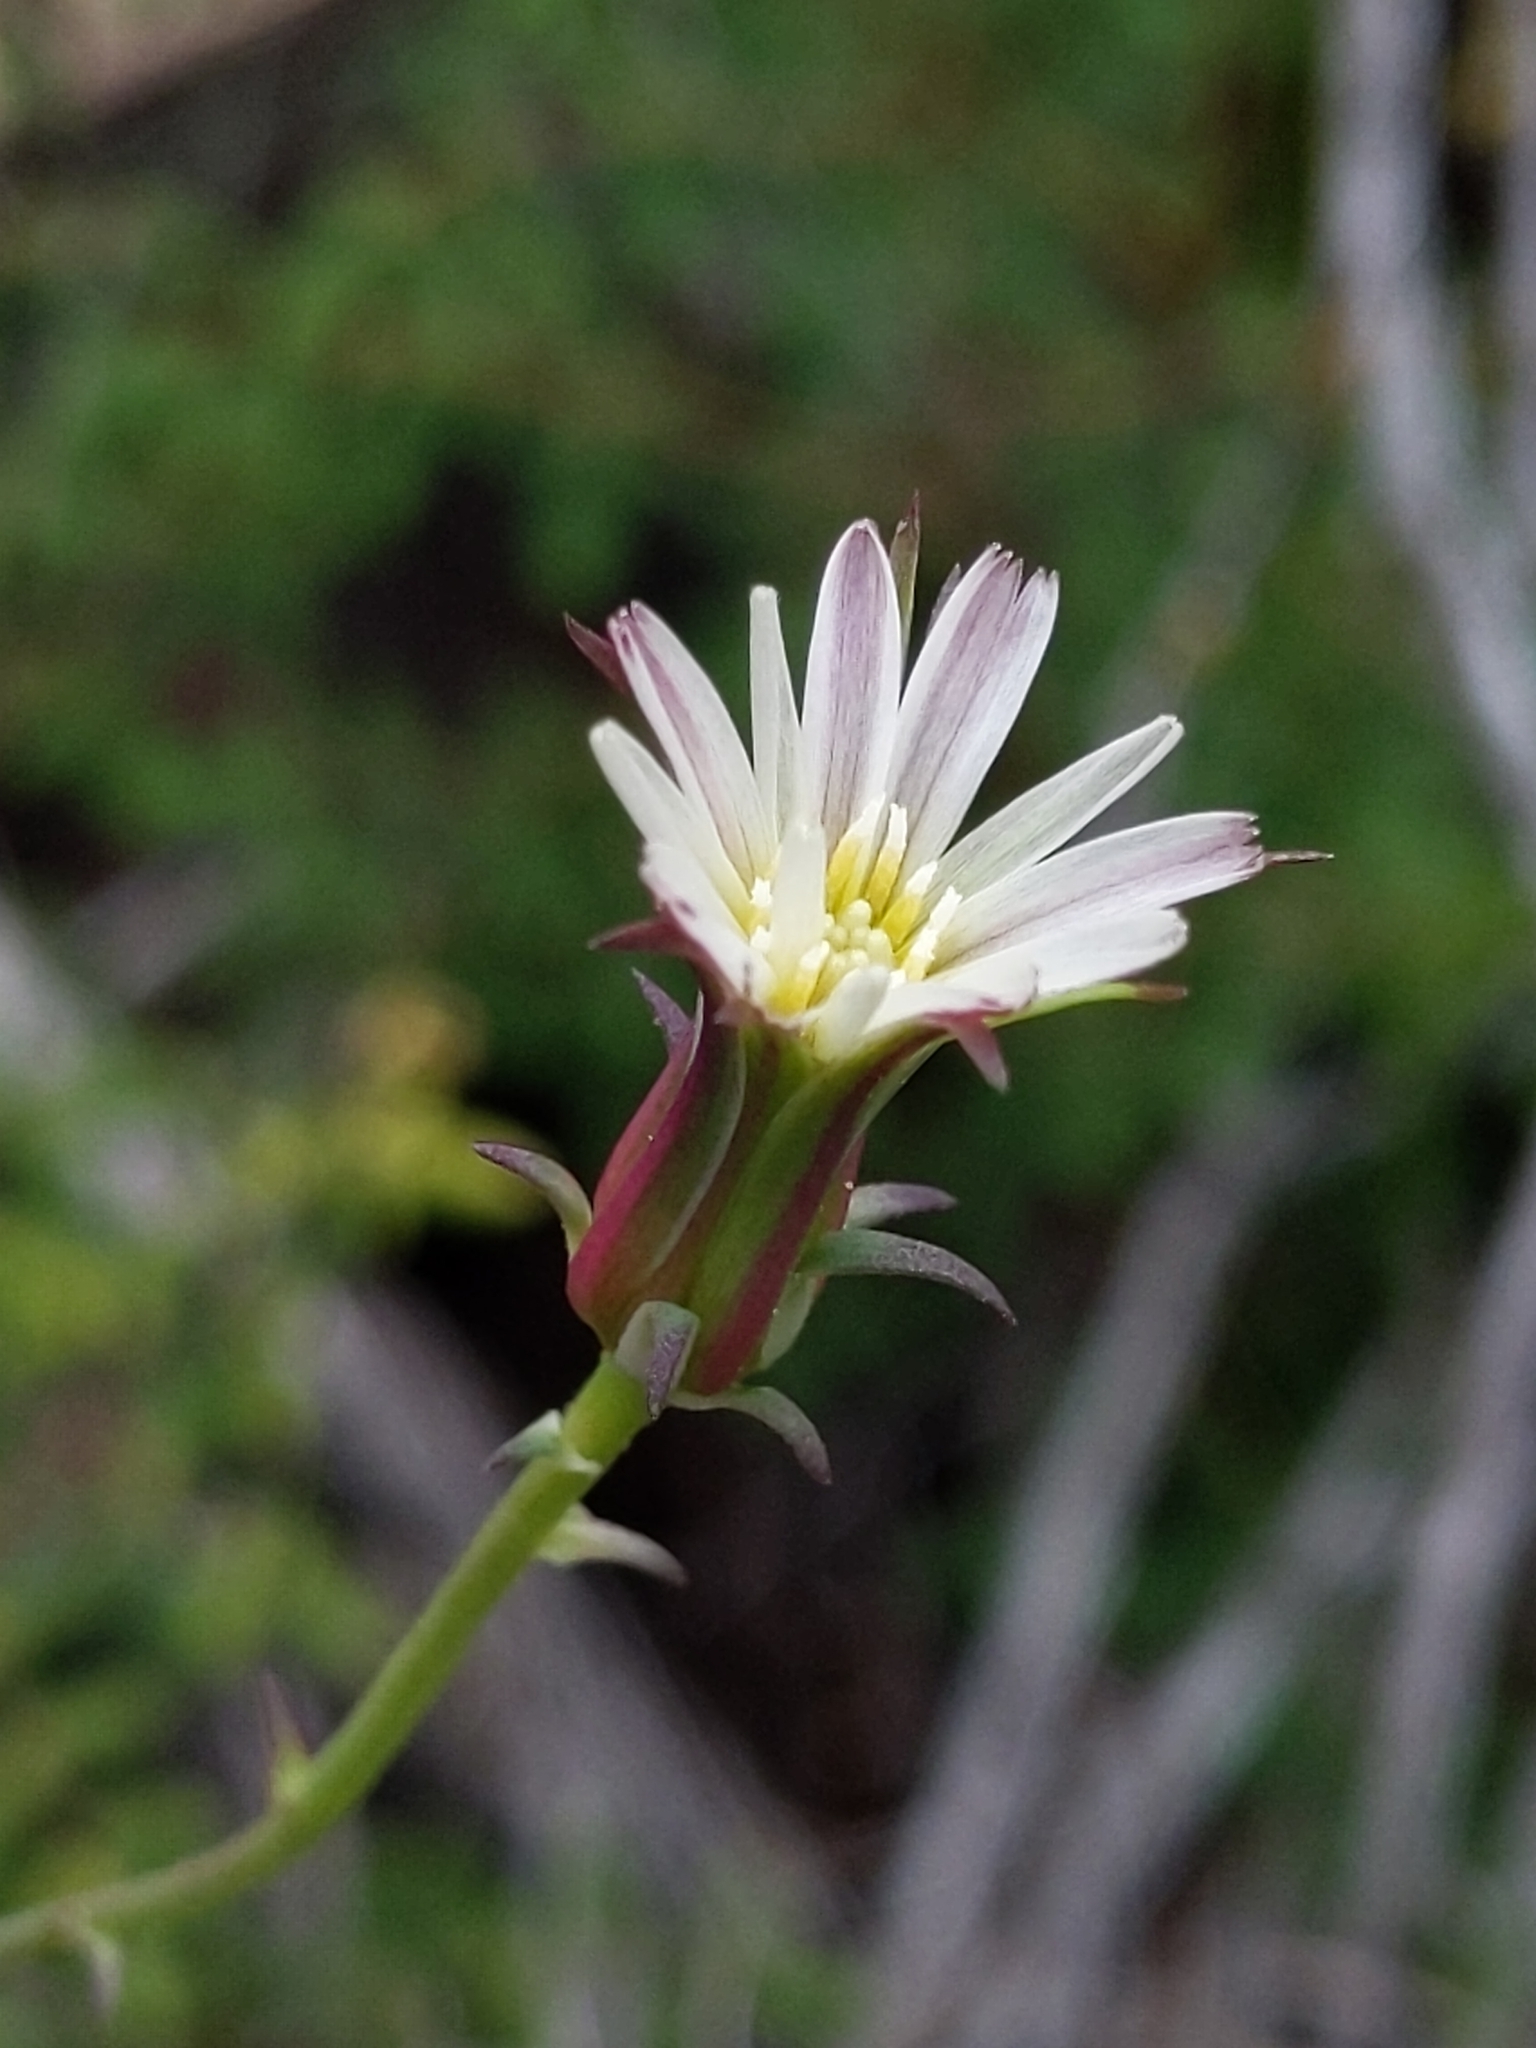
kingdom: Plantae
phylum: Tracheophyta
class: Magnoliopsida
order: Asterales
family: Asteraceae
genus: Rafinesquia
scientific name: Rafinesquia californica
